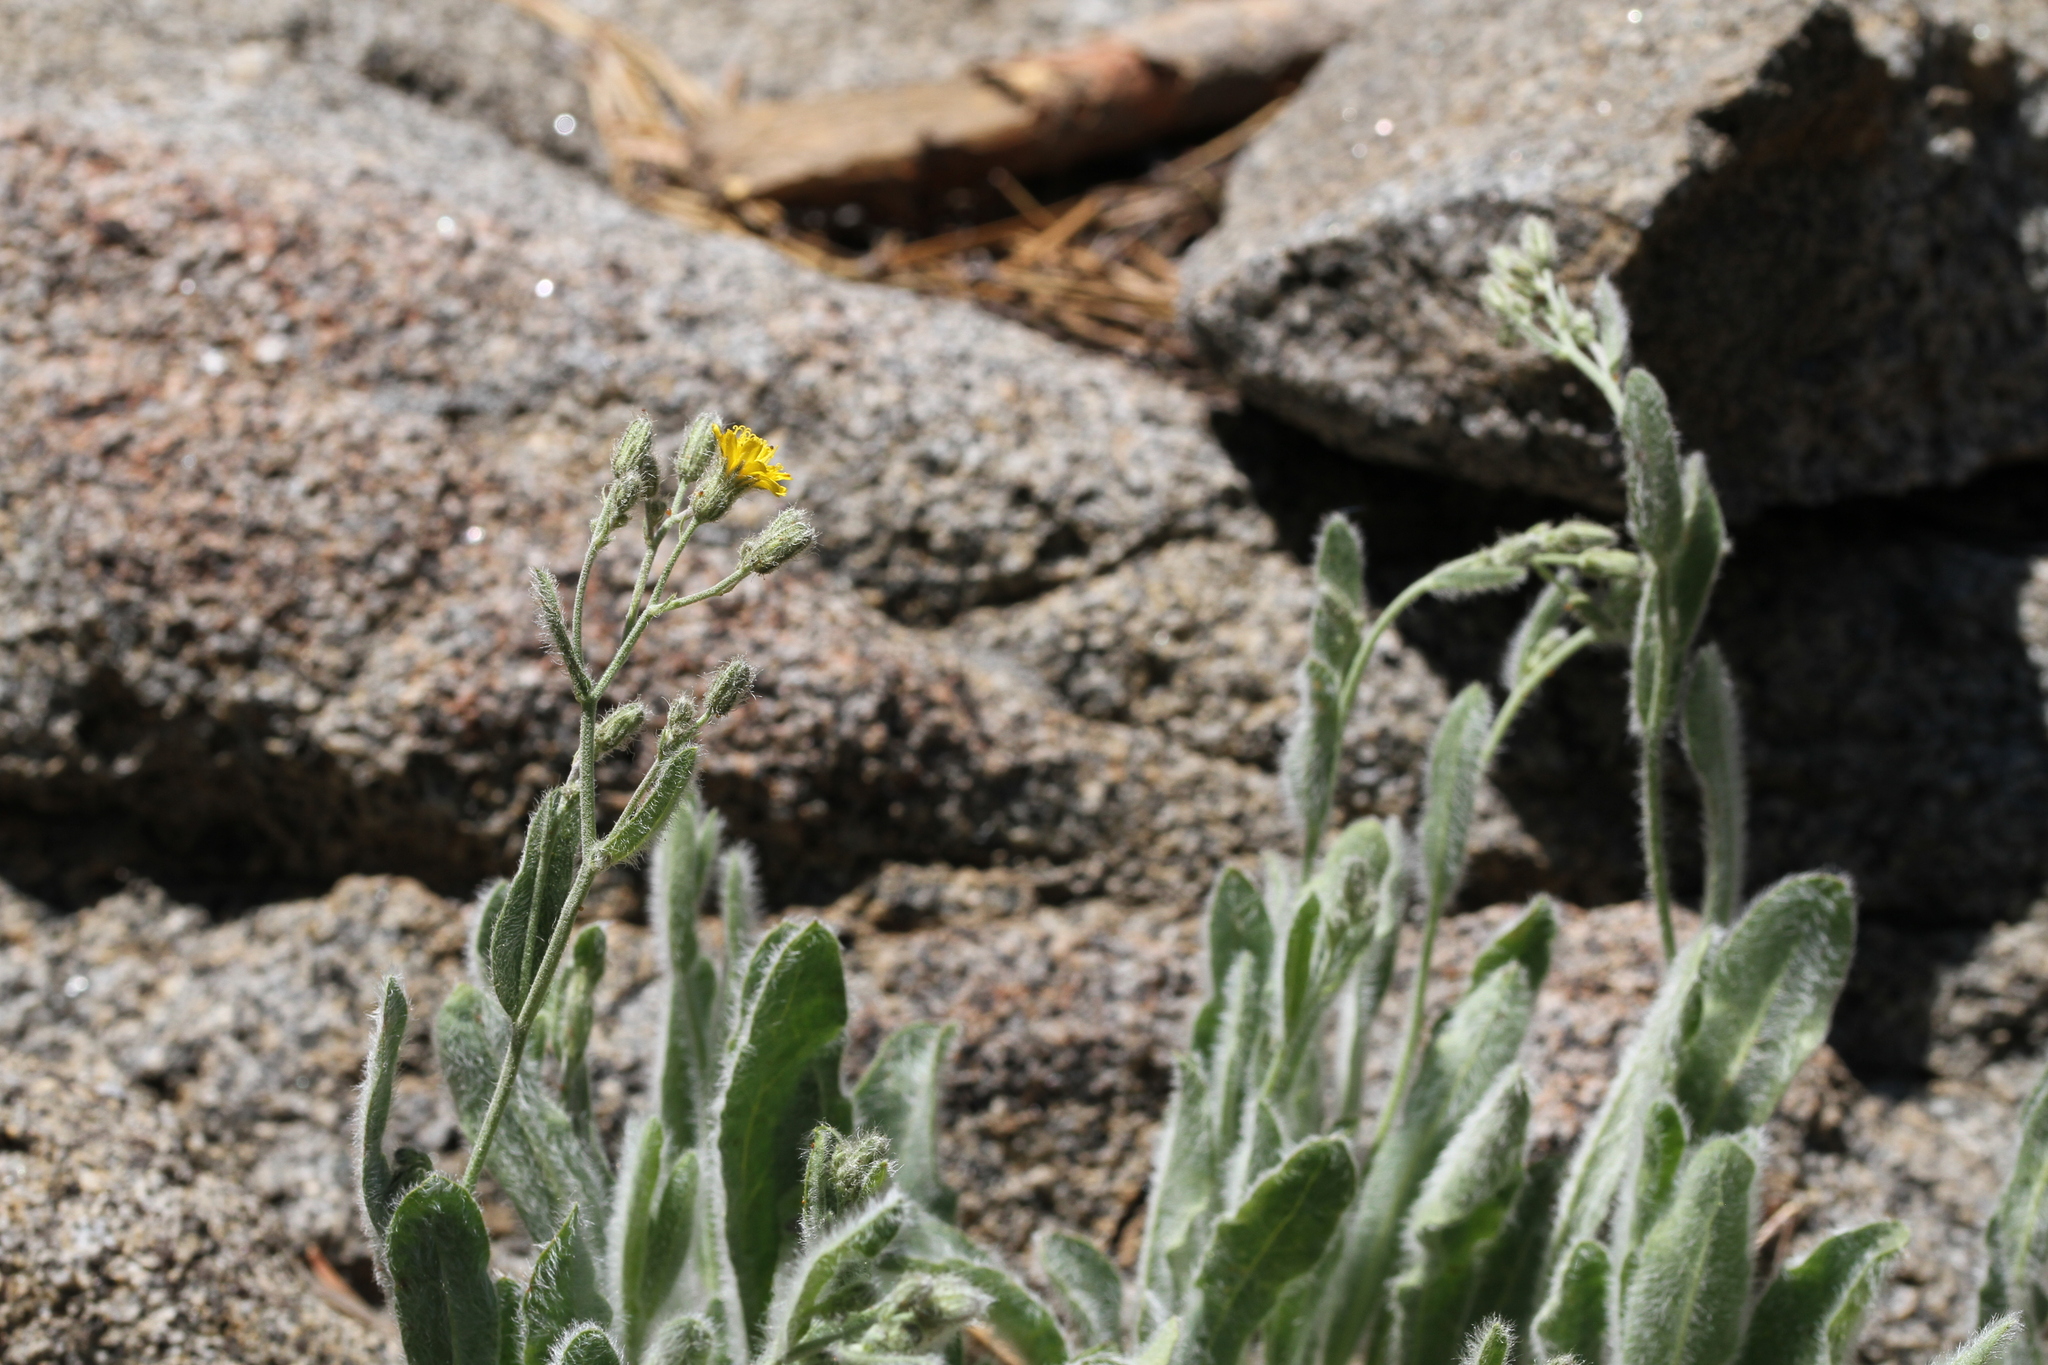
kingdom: Plantae
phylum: Tracheophyta
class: Magnoliopsida
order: Asterales
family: Asteraceae
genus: Hieracium
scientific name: Hieracium horridum
